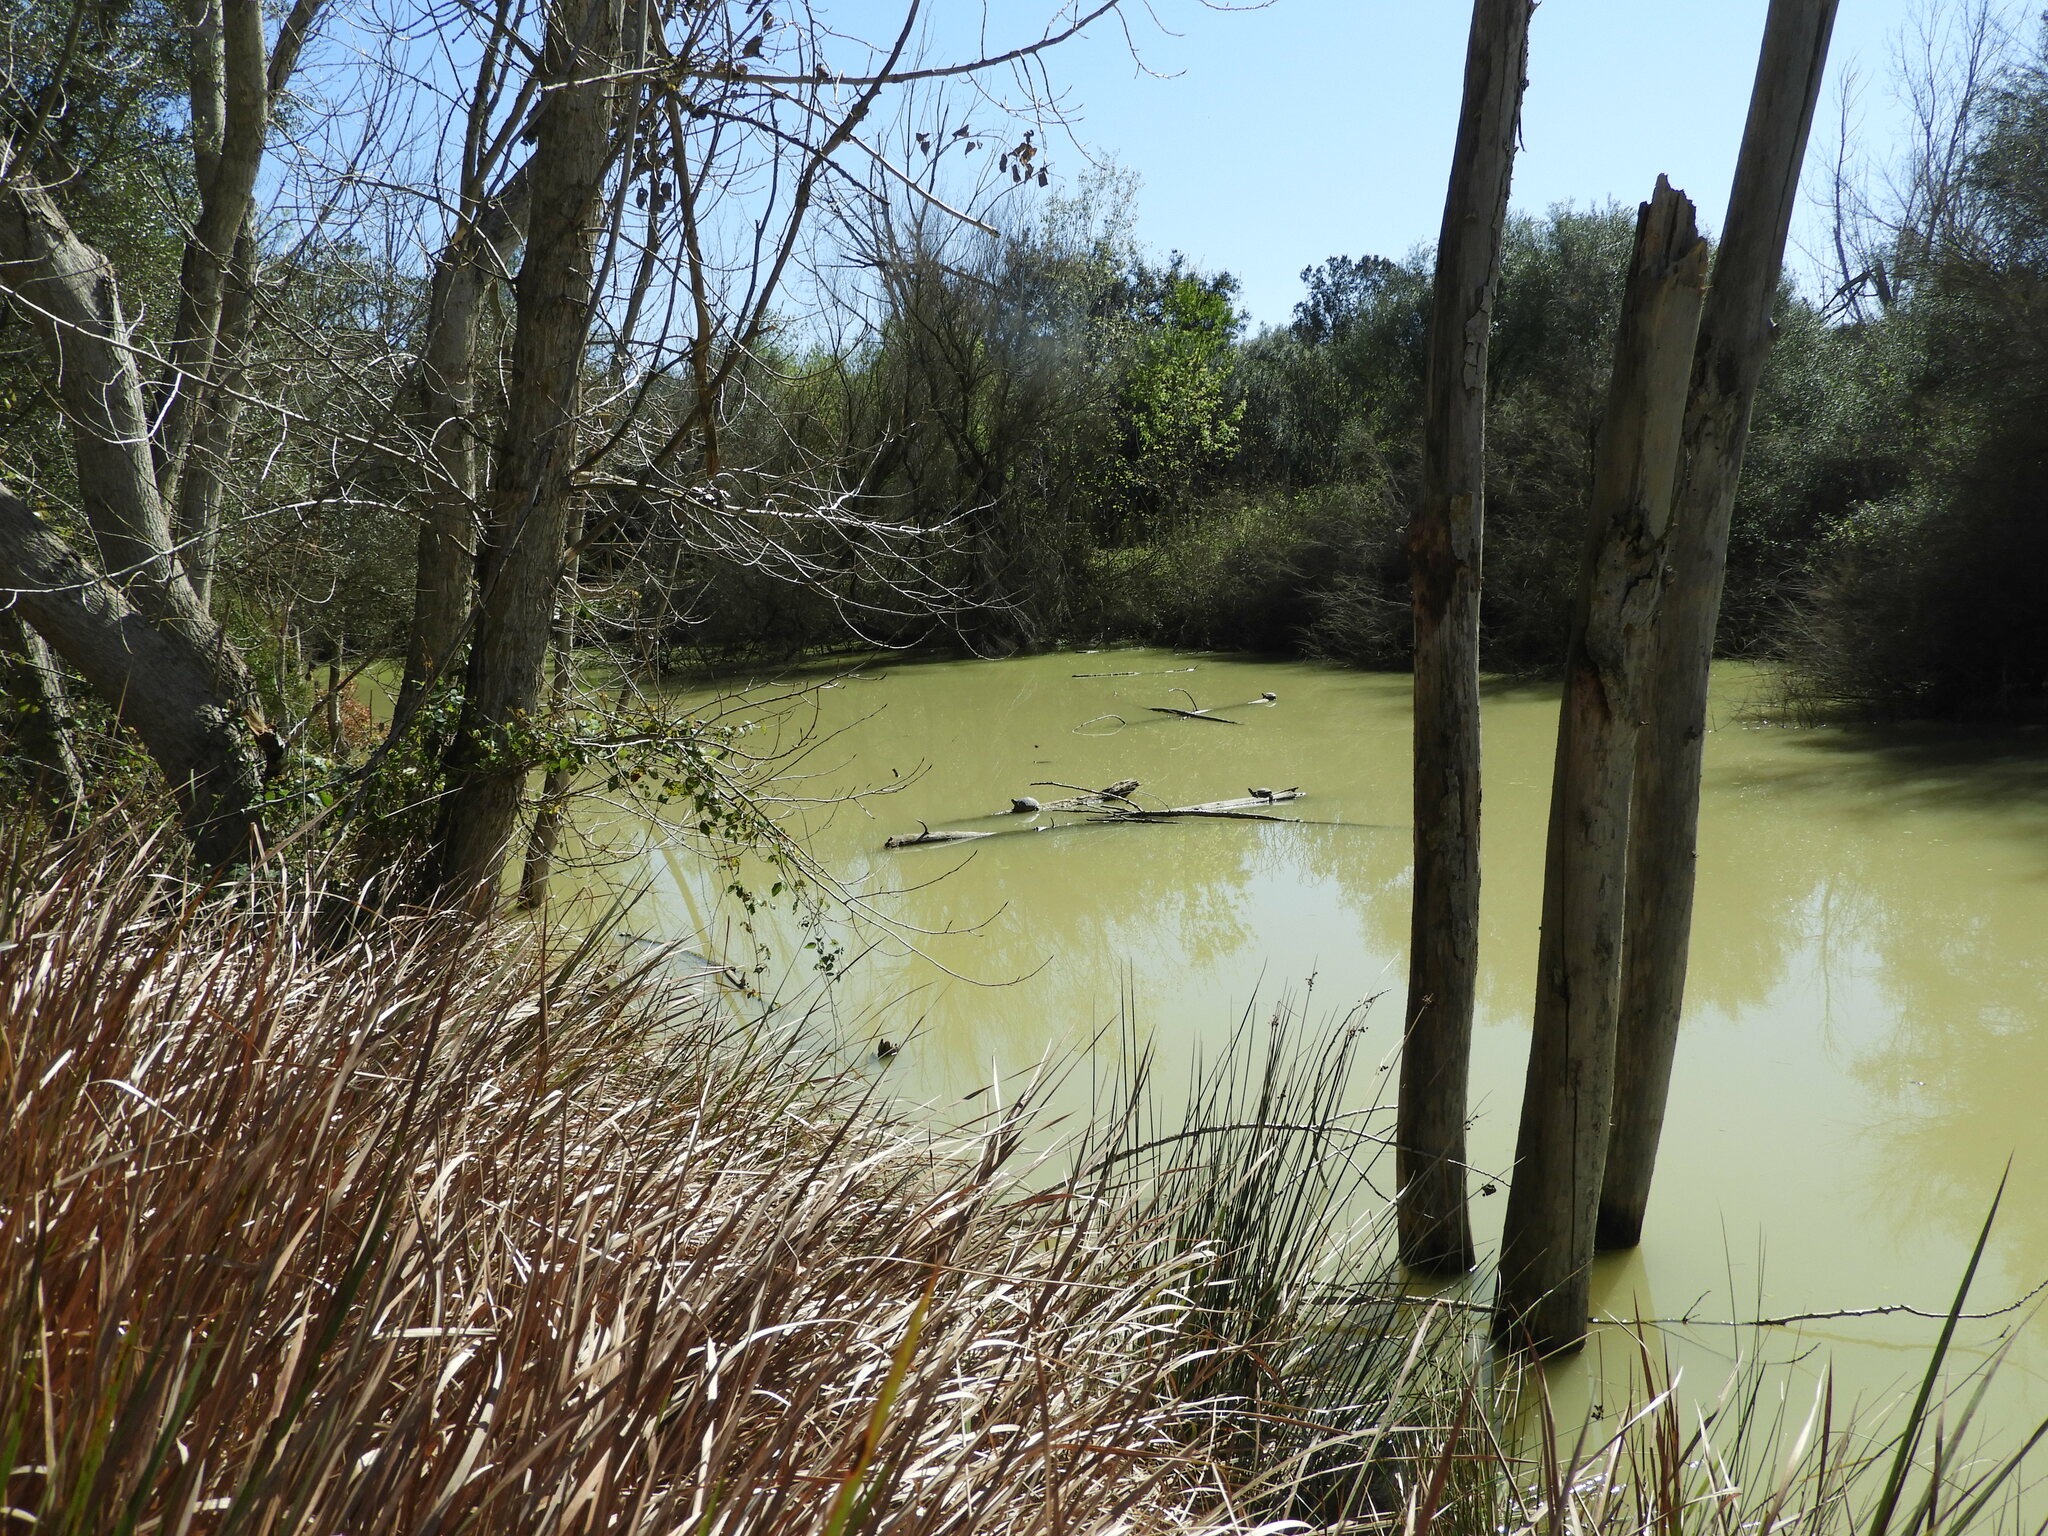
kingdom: Animalia
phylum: Chordata
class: Testudines
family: Emydidae
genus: Trachemys
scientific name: Trachemys scripta
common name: Slider
